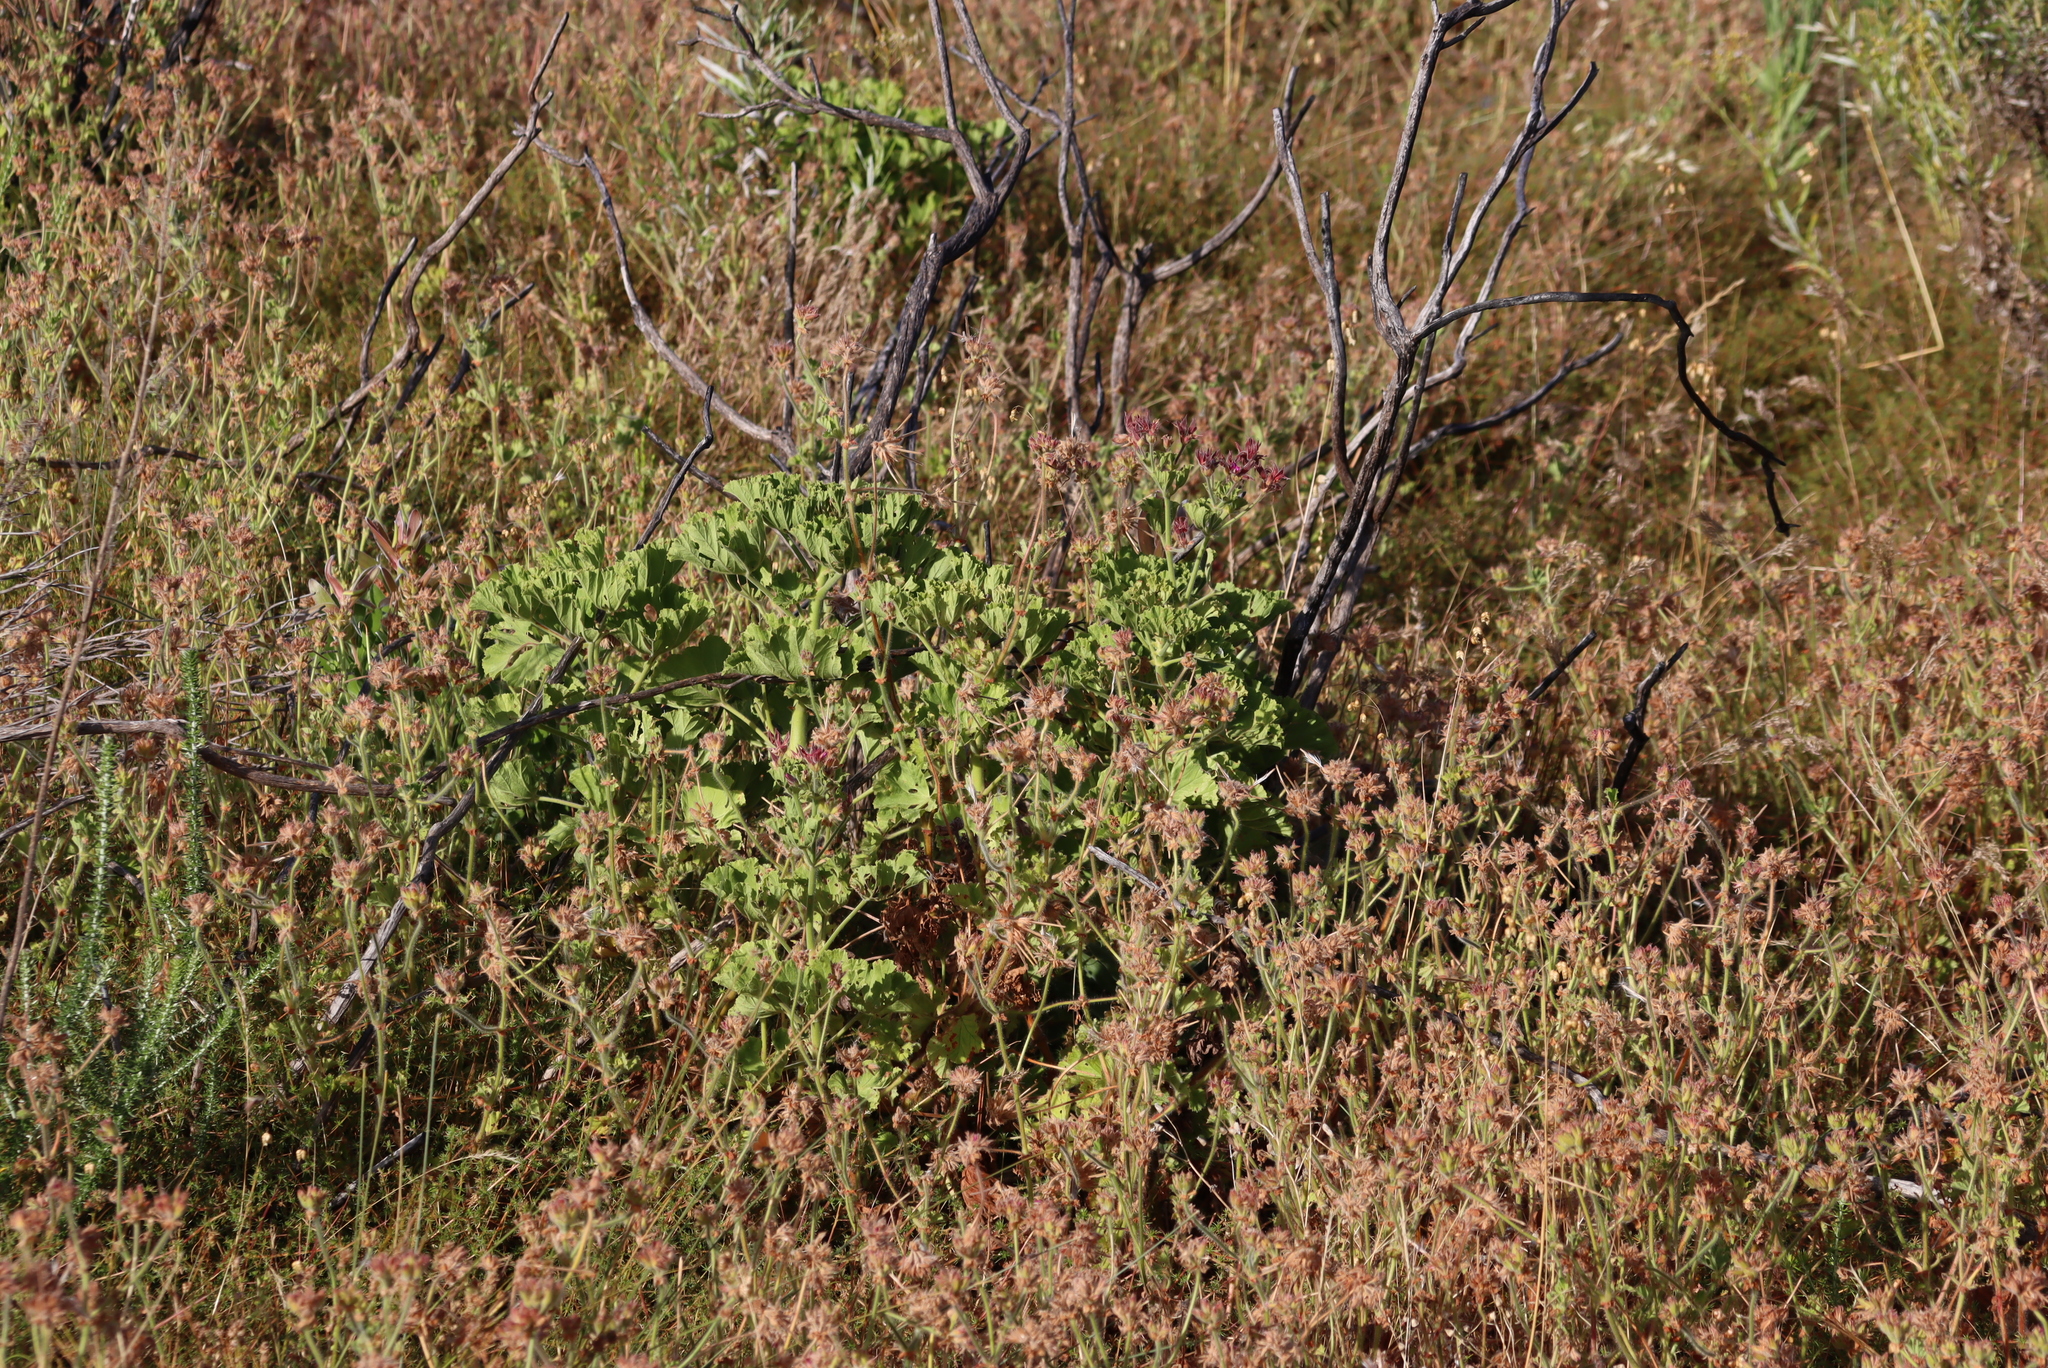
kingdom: Plantae
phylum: Tracheophyta
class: Magnoliopsida
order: Geraniales
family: Geraniaceae
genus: Pelargonium
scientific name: Pelargonium cucullatum
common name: Tree pelargonium
